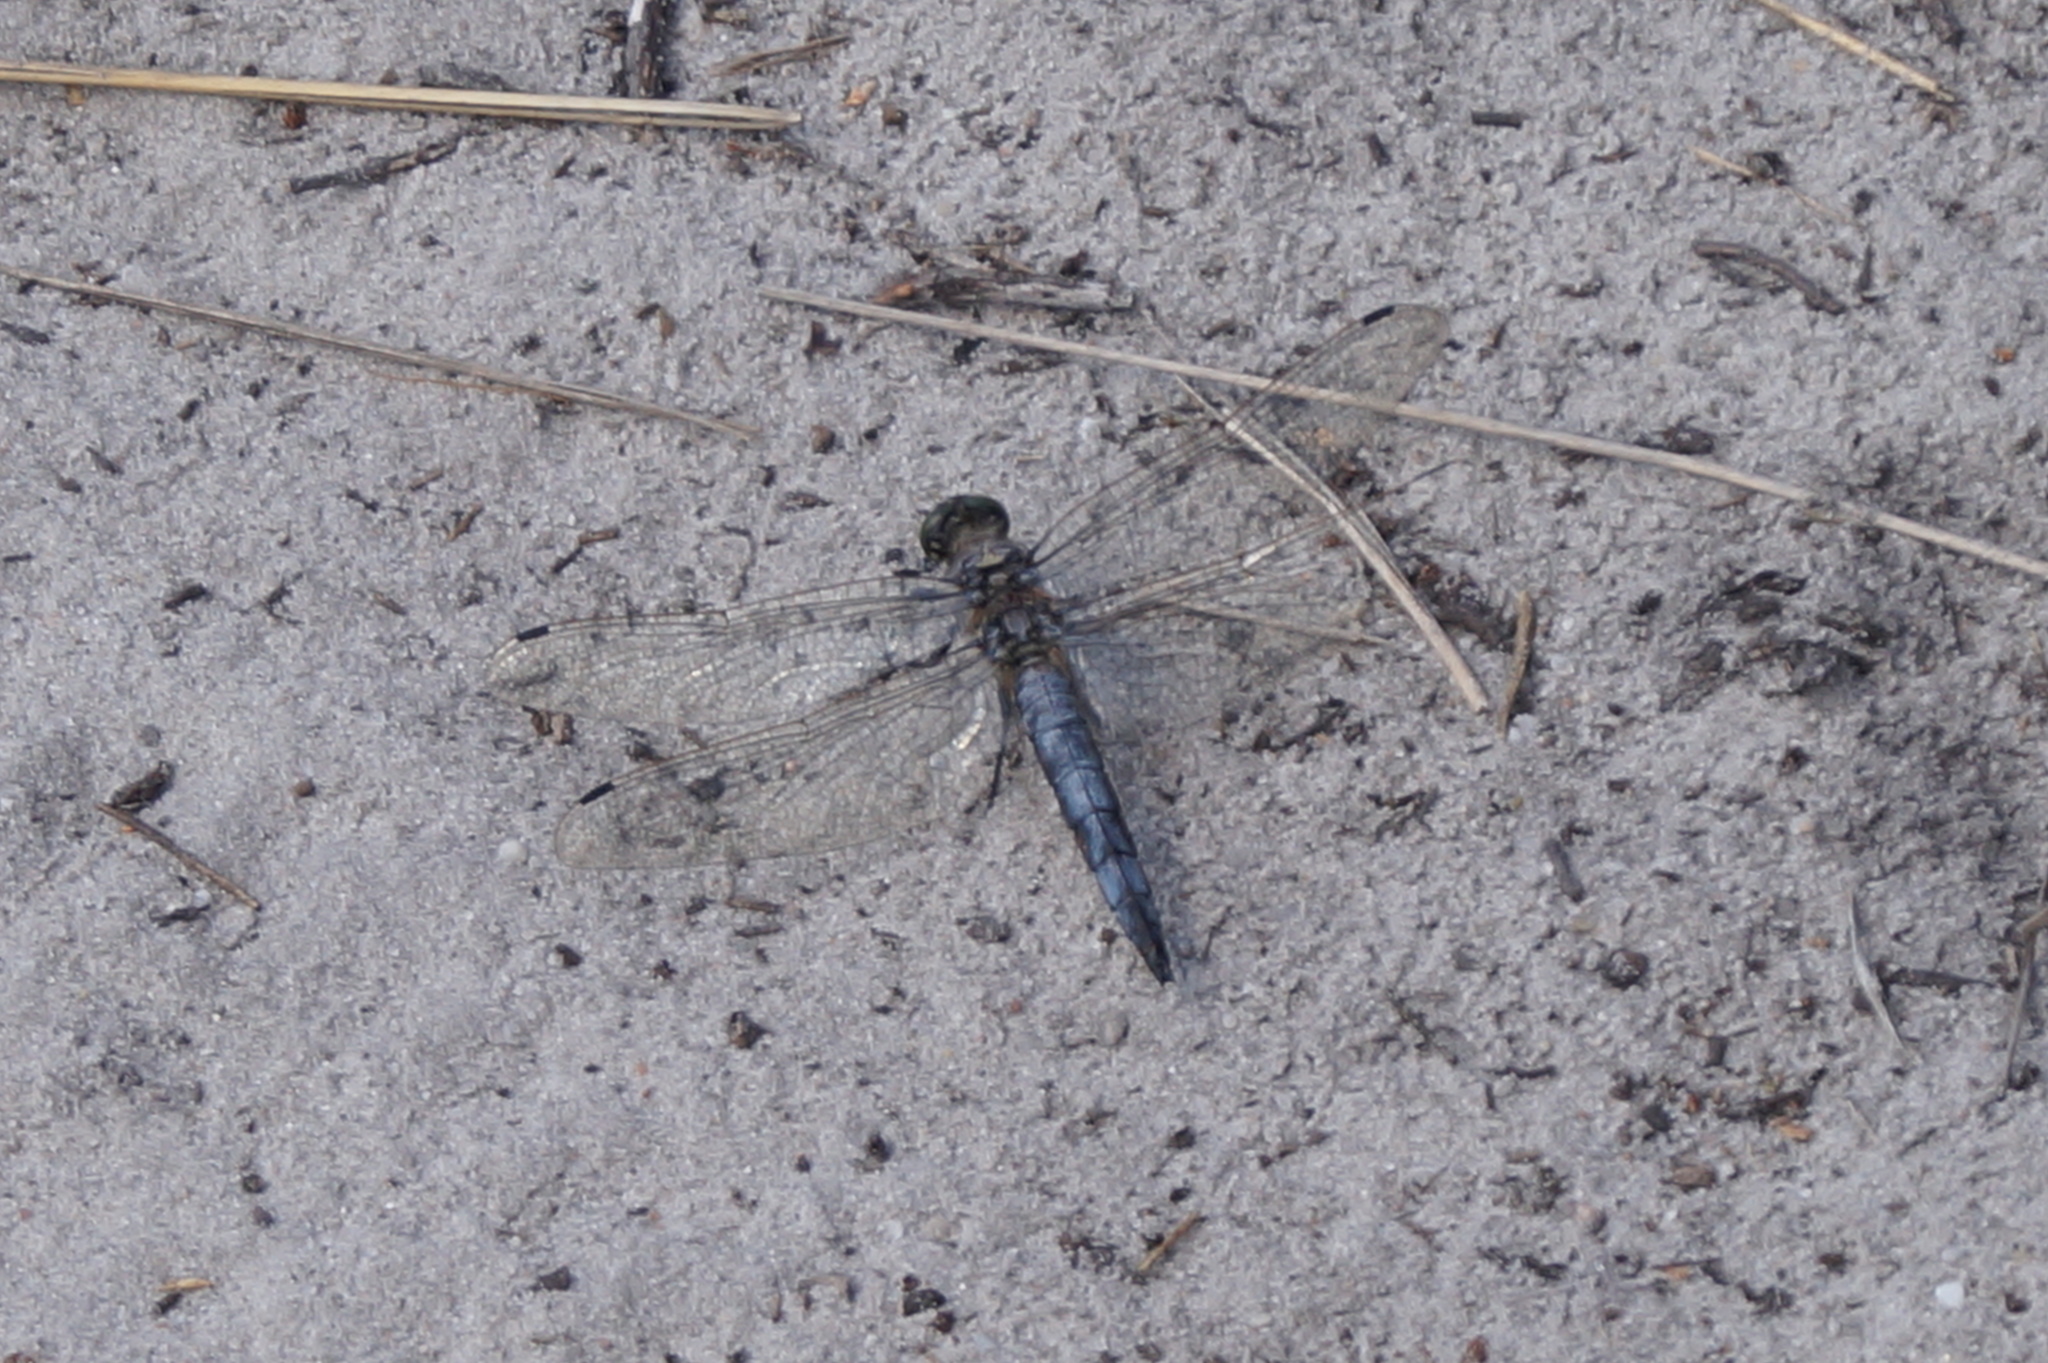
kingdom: Animalia
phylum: Arthropoda
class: Insecta
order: Odonata
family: Libellulidae
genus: Orthetrum
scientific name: Orthetrum cancellatum
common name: Black-tailed skimmer
